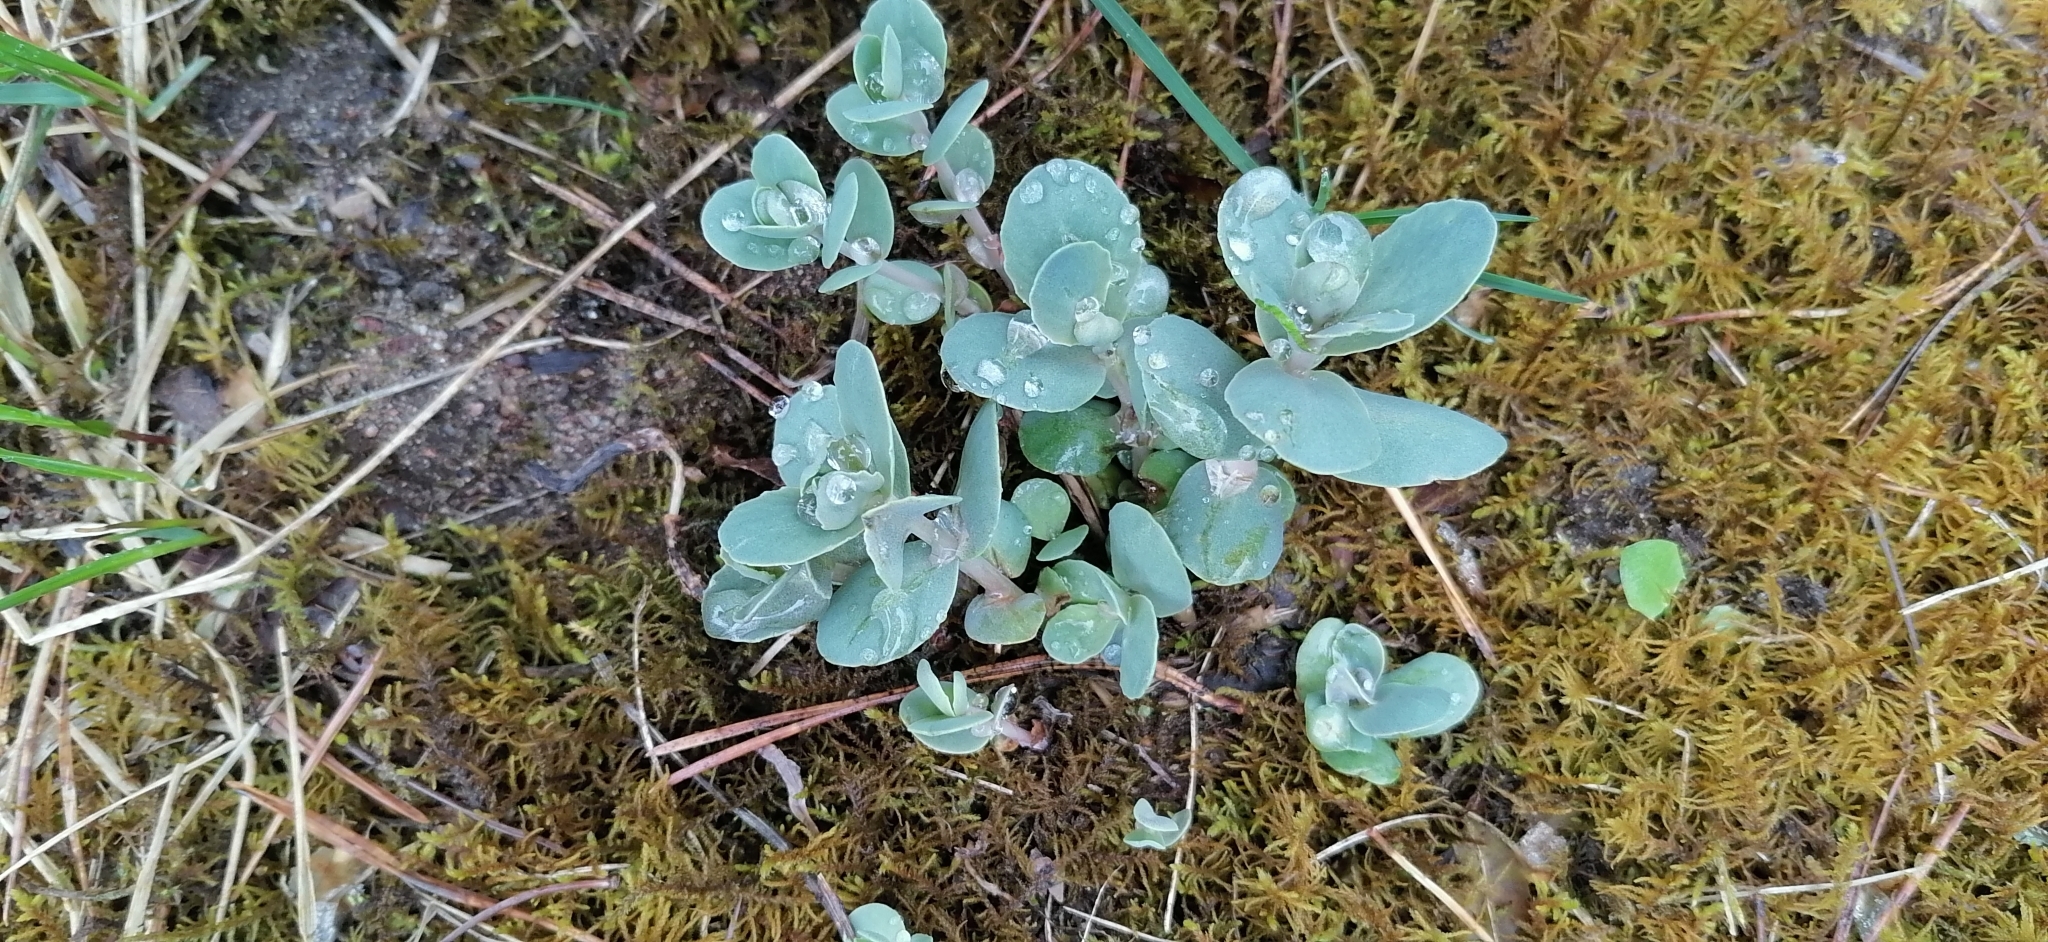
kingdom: Plantae
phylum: Tracheophyta
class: Magnoliopsida
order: Saxifragales
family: Crassulaceae
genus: Hylotelephium
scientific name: Hylotelephium maximum
